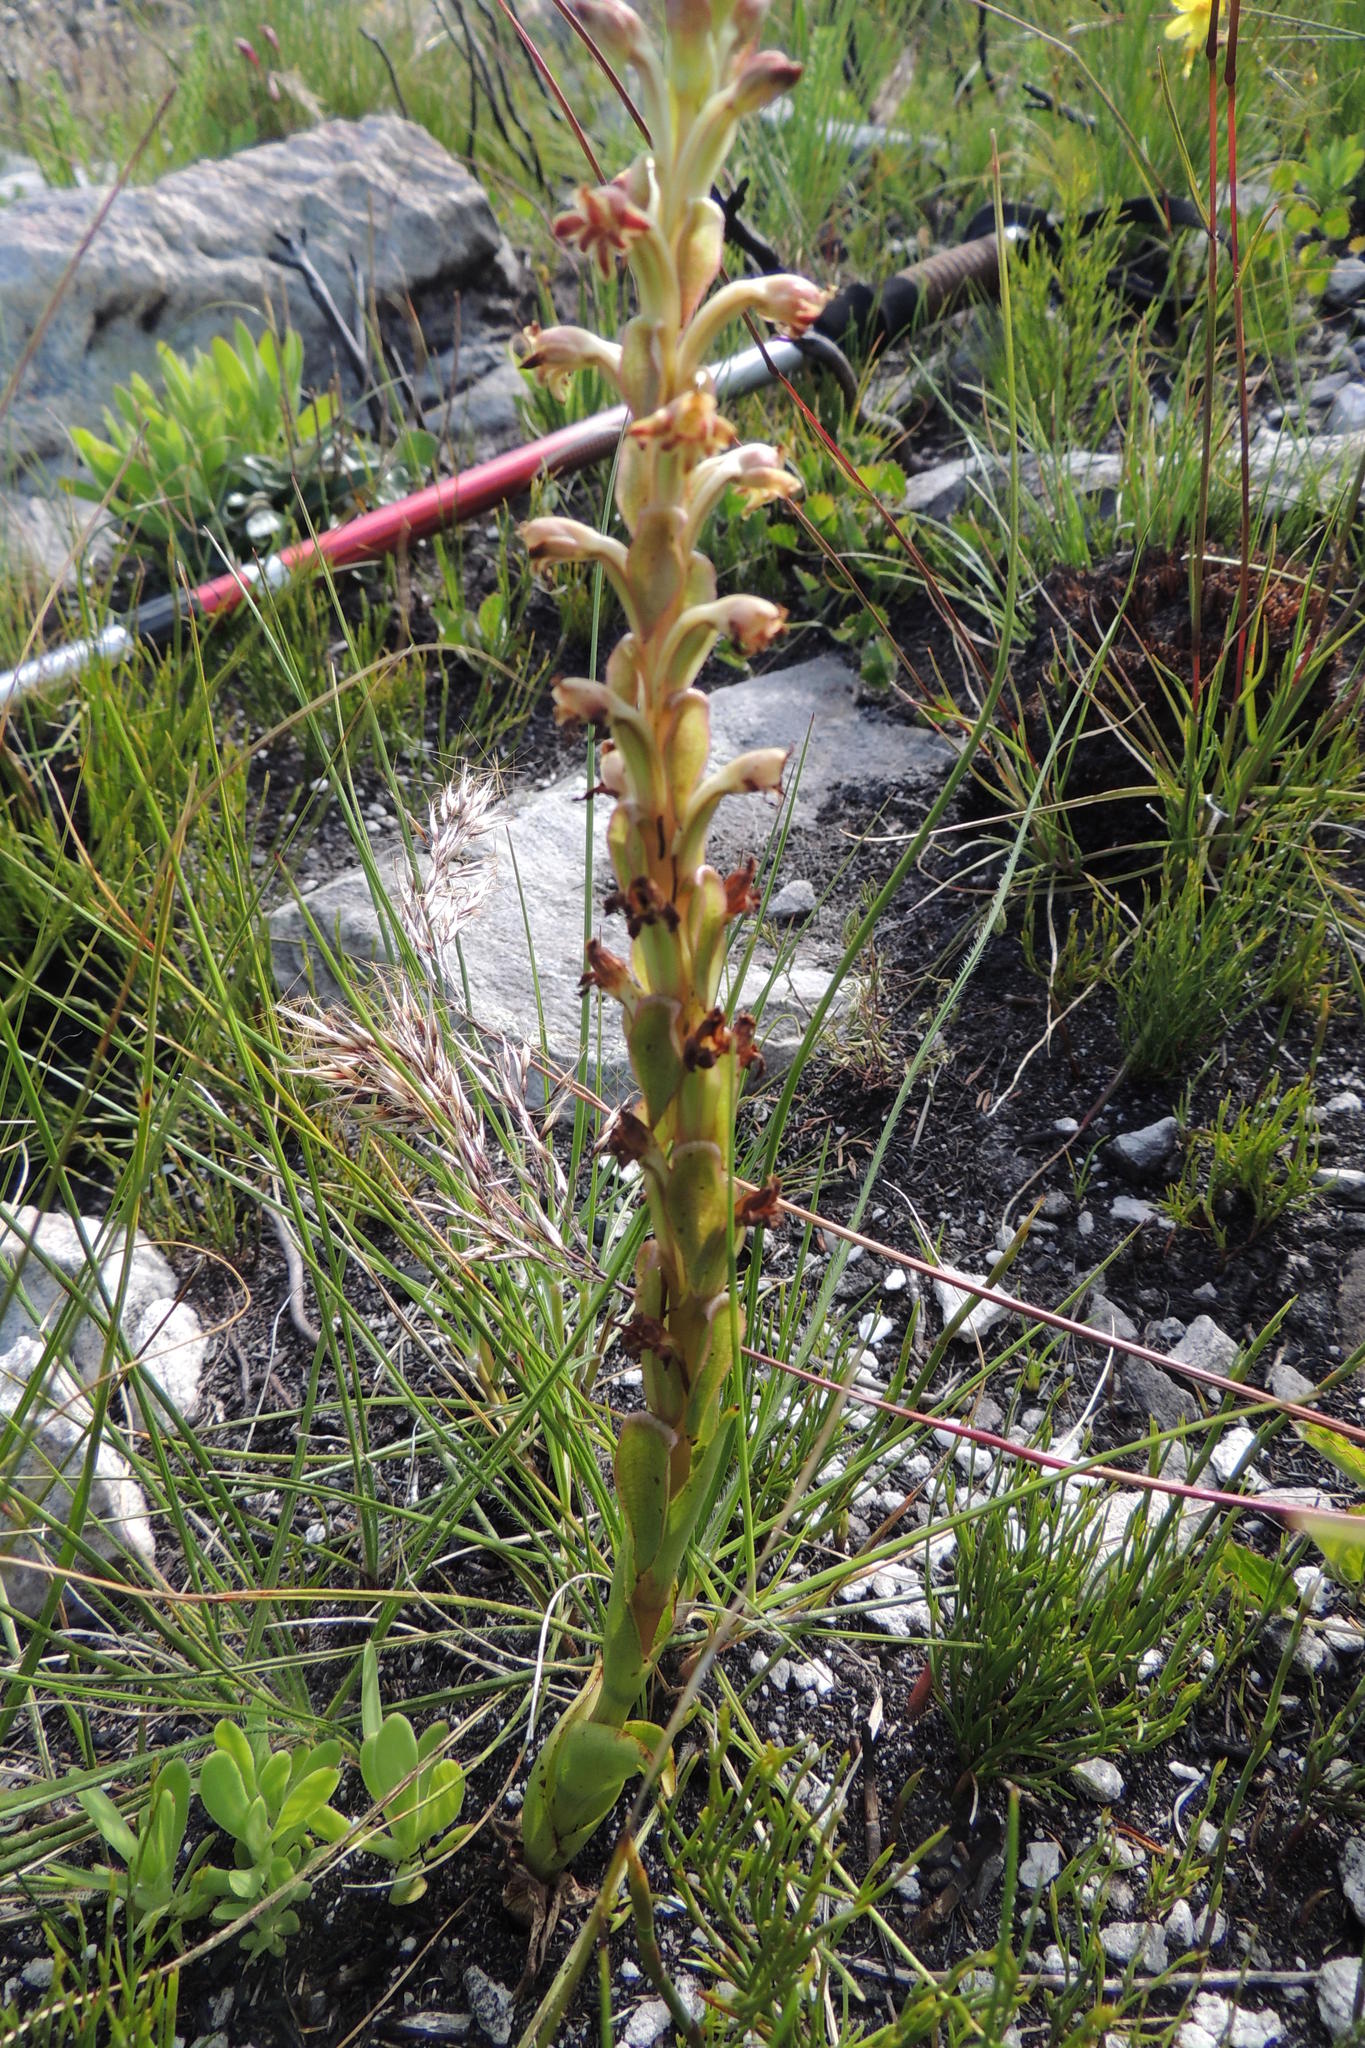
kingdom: Plantae
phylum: Tracheophyta
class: Liliopsida
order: Asparagales
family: Orchidaceae
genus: Satyrium
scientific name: Satyrium lupulinum
